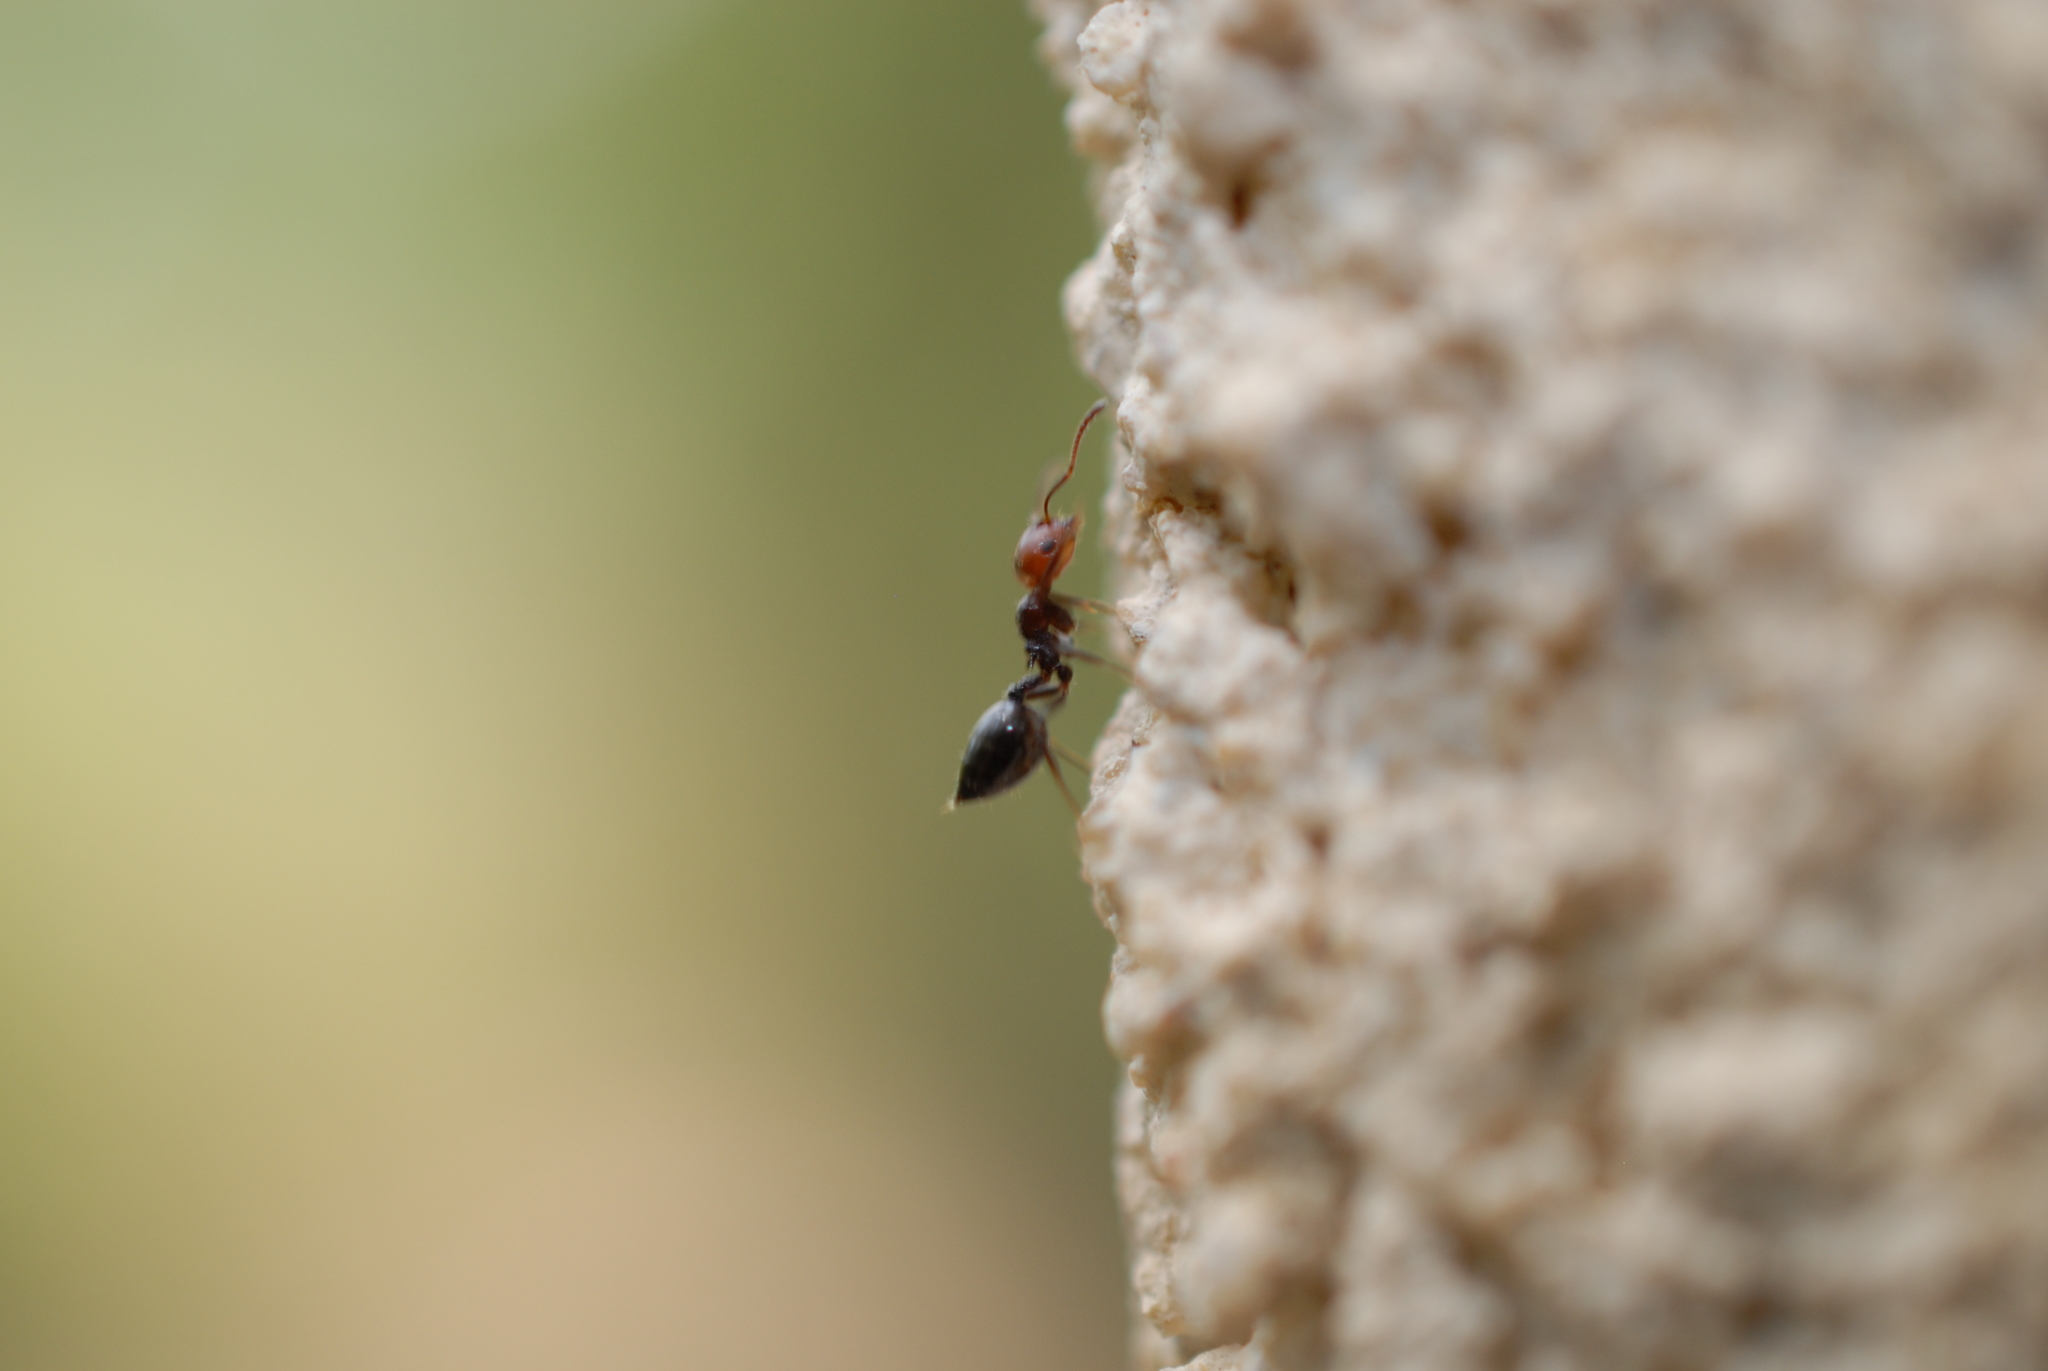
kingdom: Animalia
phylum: Arthropoda
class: Insecta
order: Hymenoptera
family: Formicidae
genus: Crematogaster
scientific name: Crematogaster scutellaris
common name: Fourmi du liège
